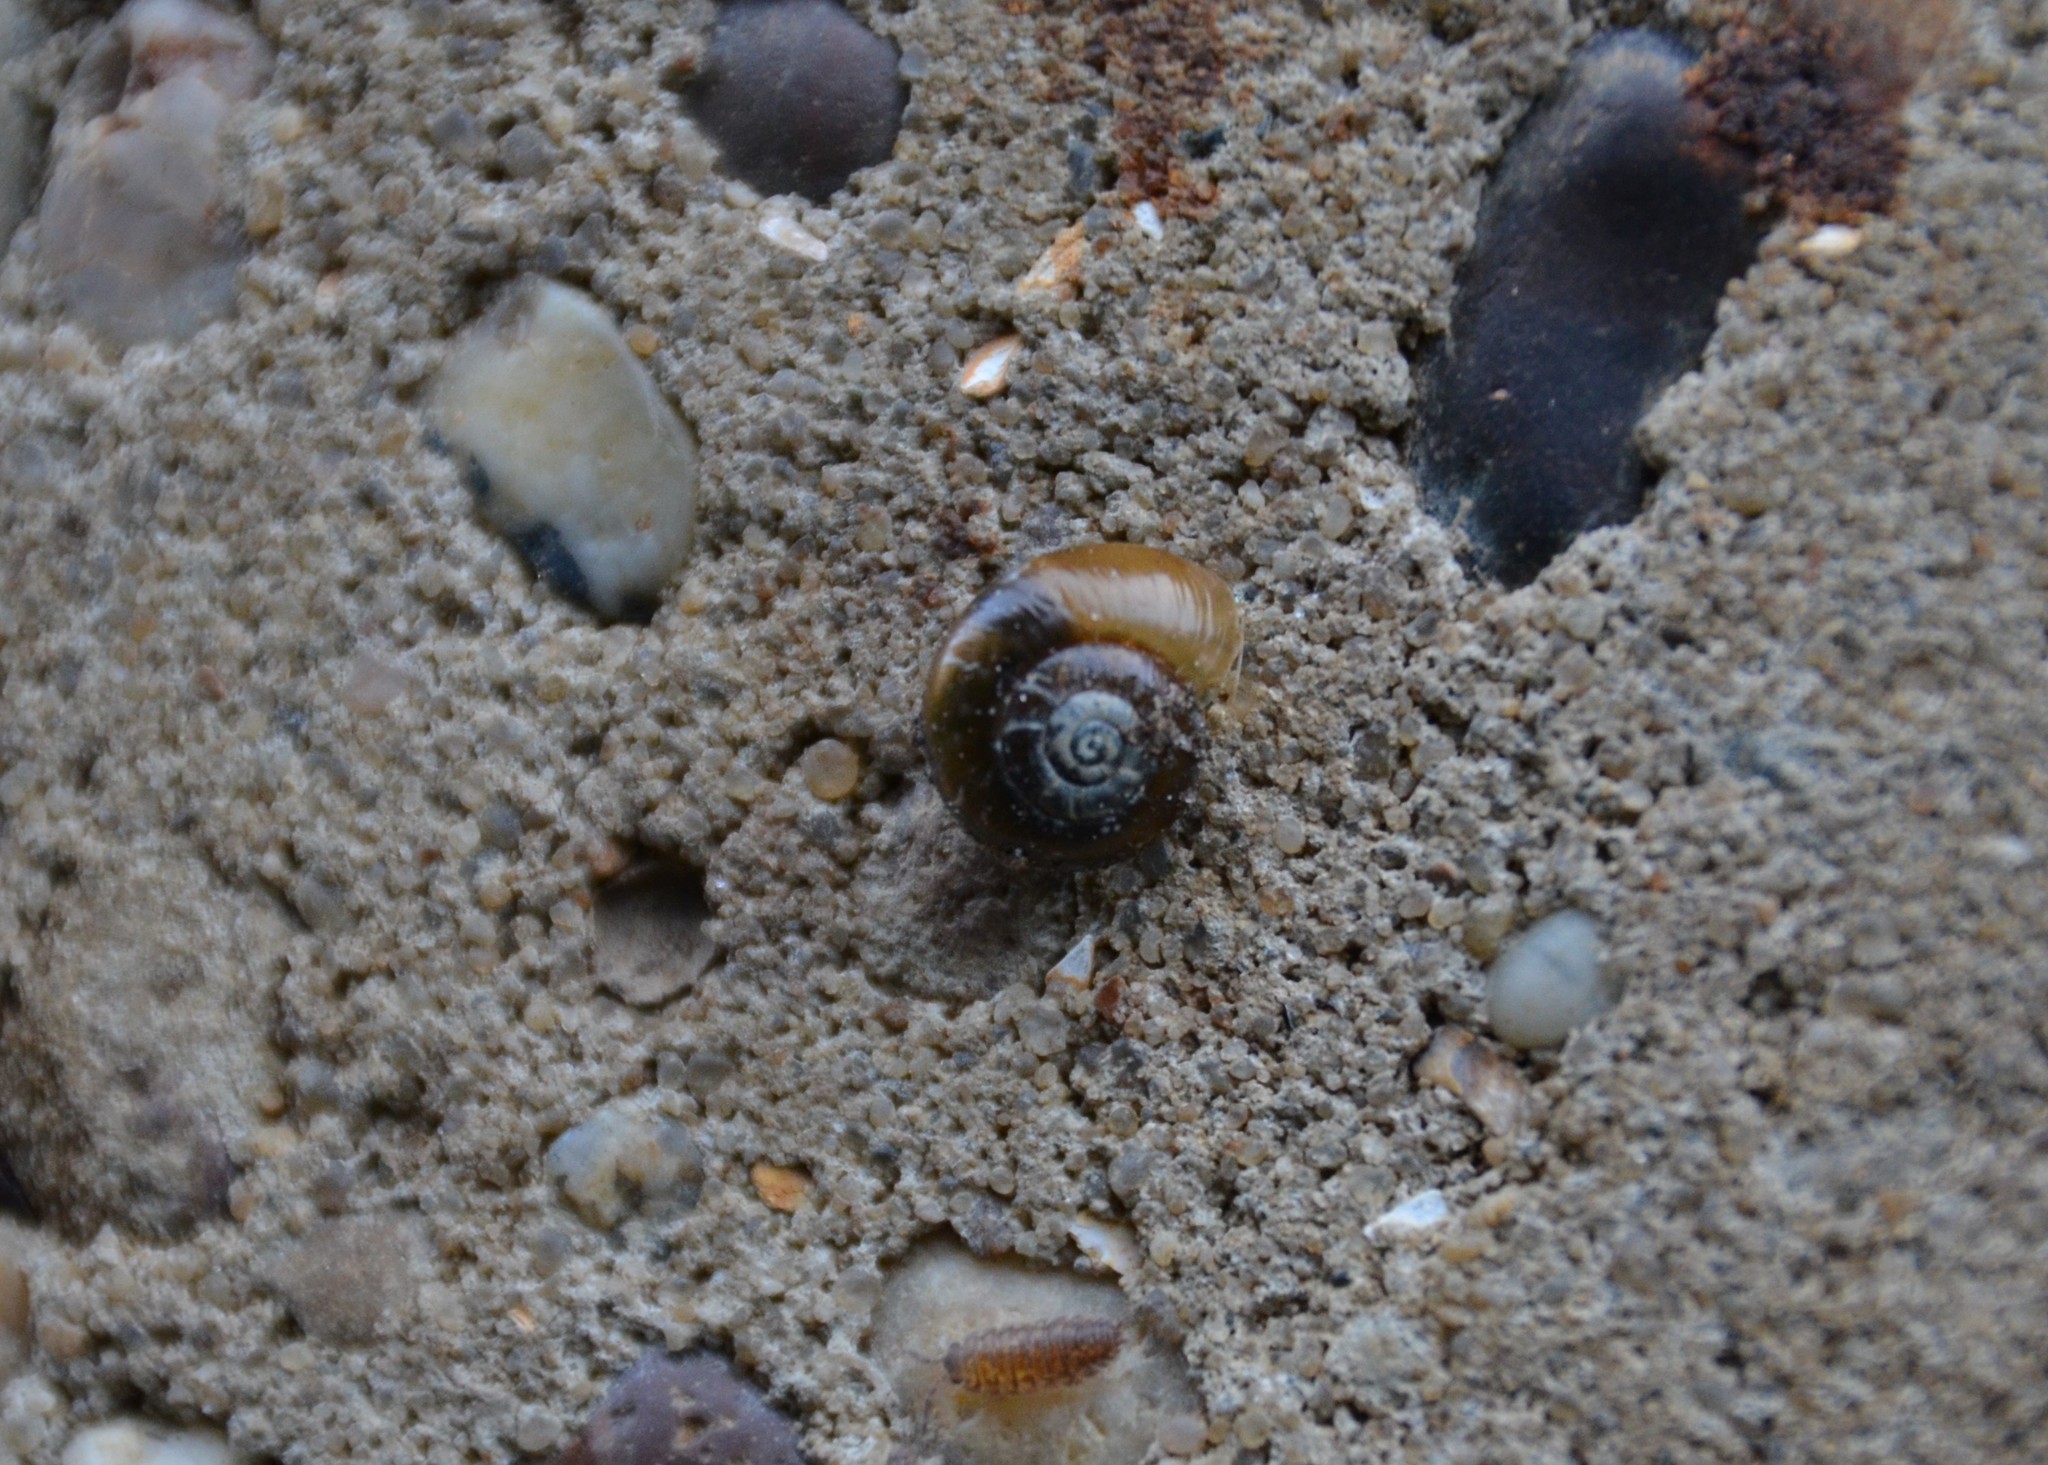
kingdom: Animalia
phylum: Mollusca
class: Gastropoda
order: Stylommatophora
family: Gastrodontidae
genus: Aegopinella
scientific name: Aegopinella nitidula
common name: Smooth glass snail
